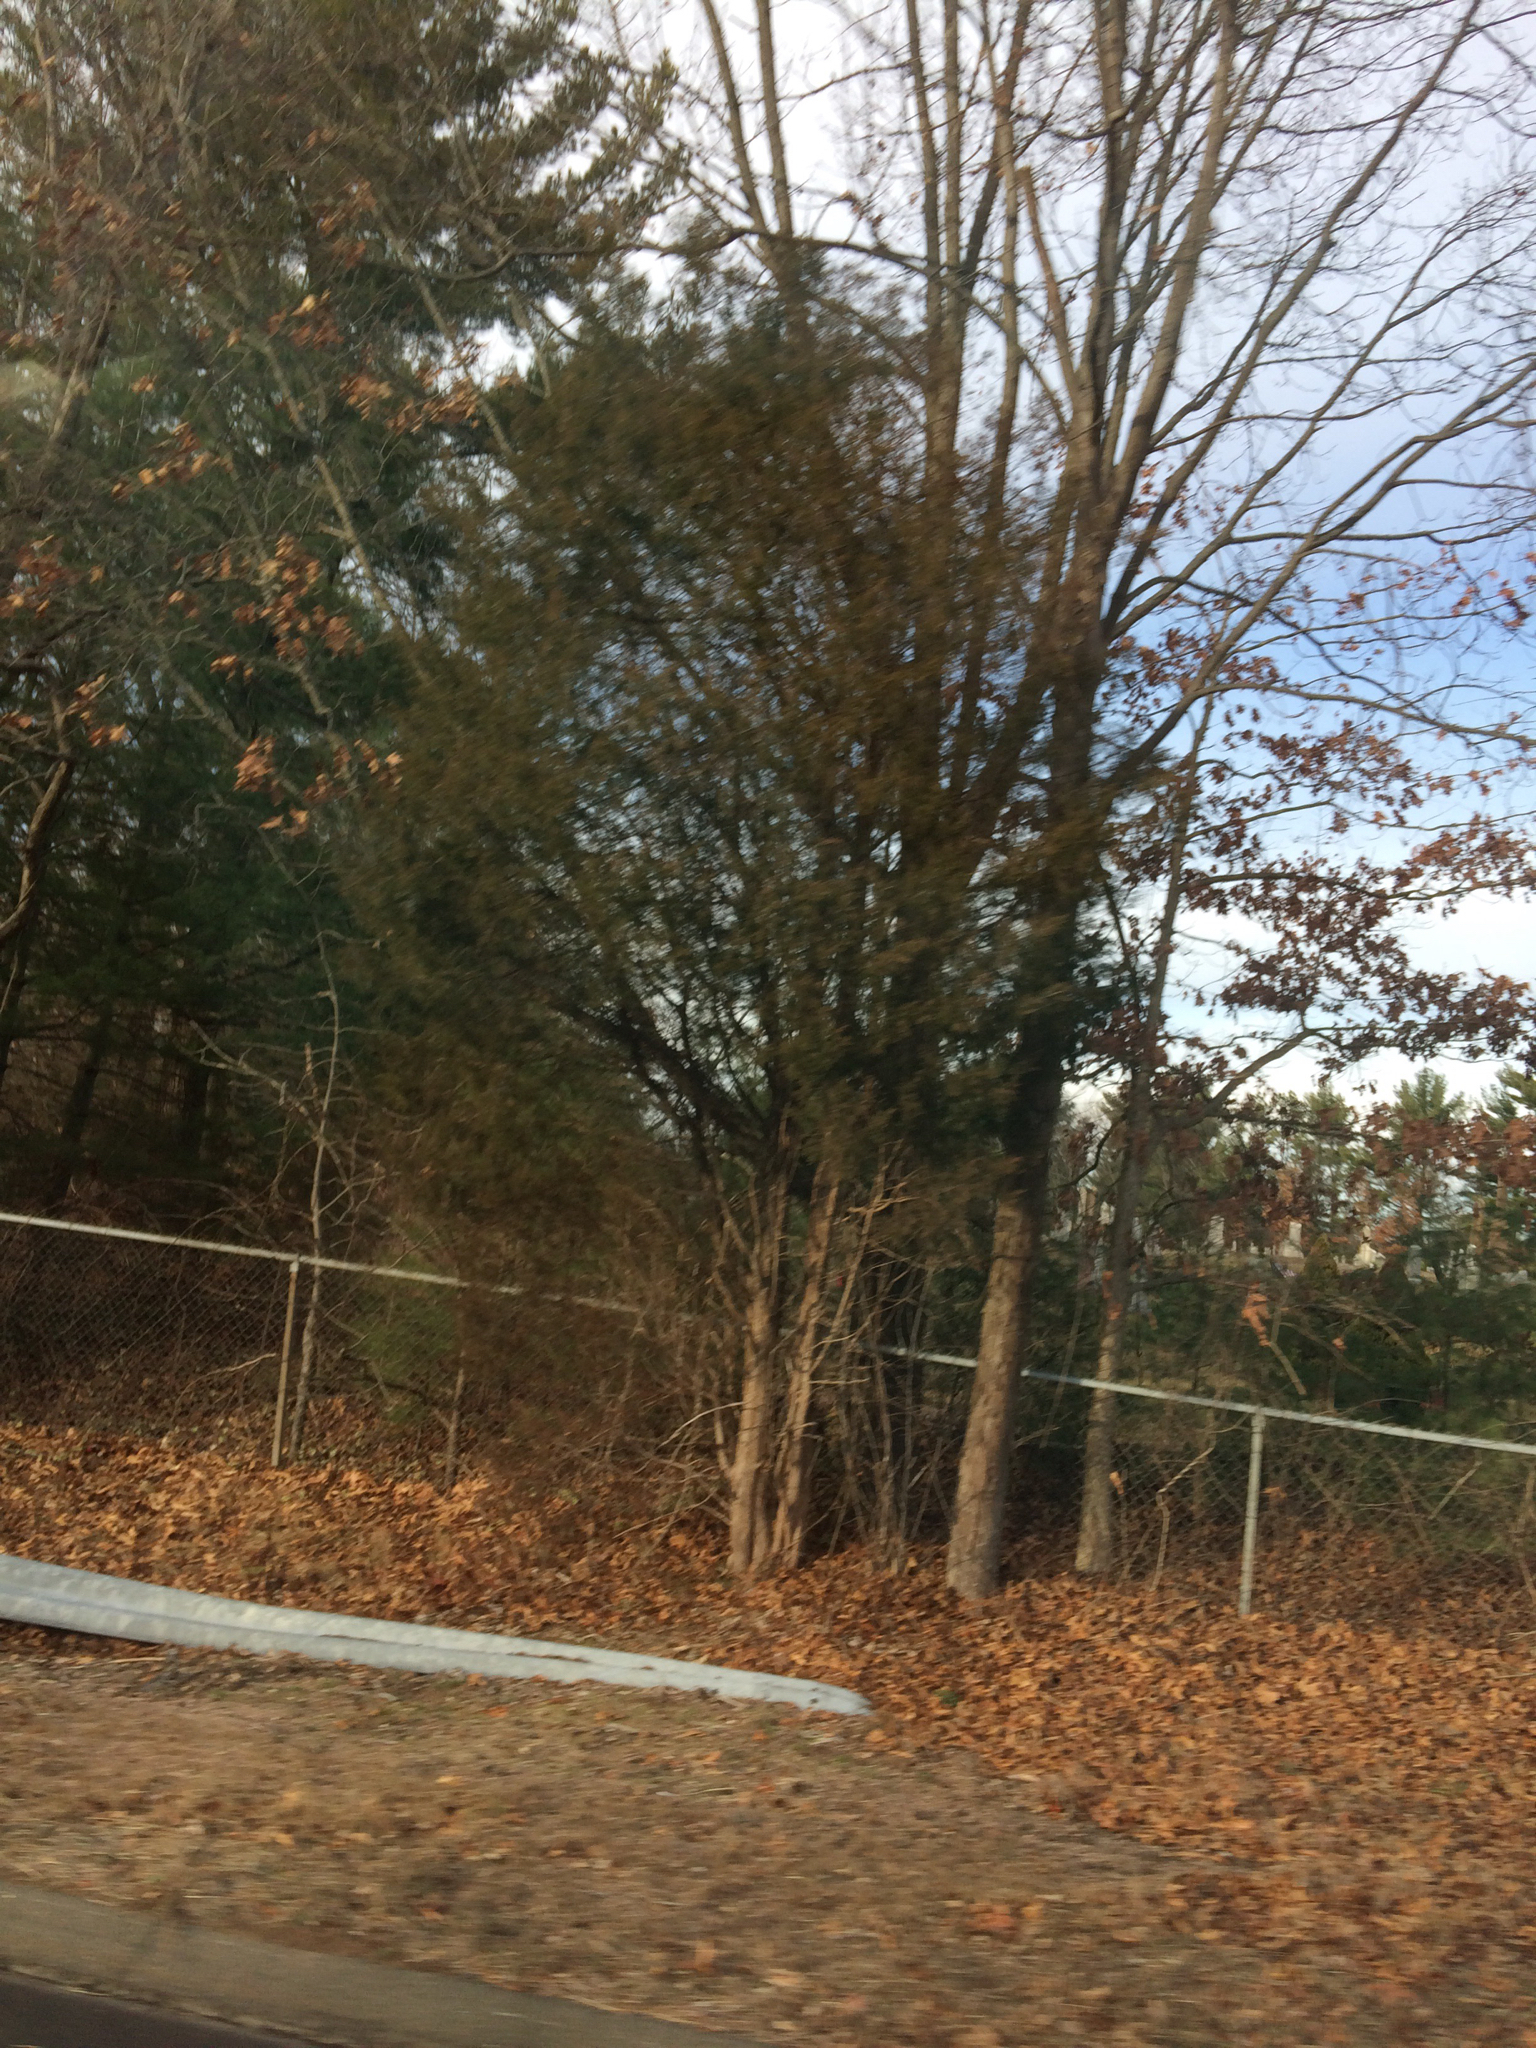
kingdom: Plantae
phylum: Tracheophyta
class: Pinopsida
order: Pinales
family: Cupressaceae
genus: Juniperus
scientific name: Juniperus virginiana
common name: Red juniper
